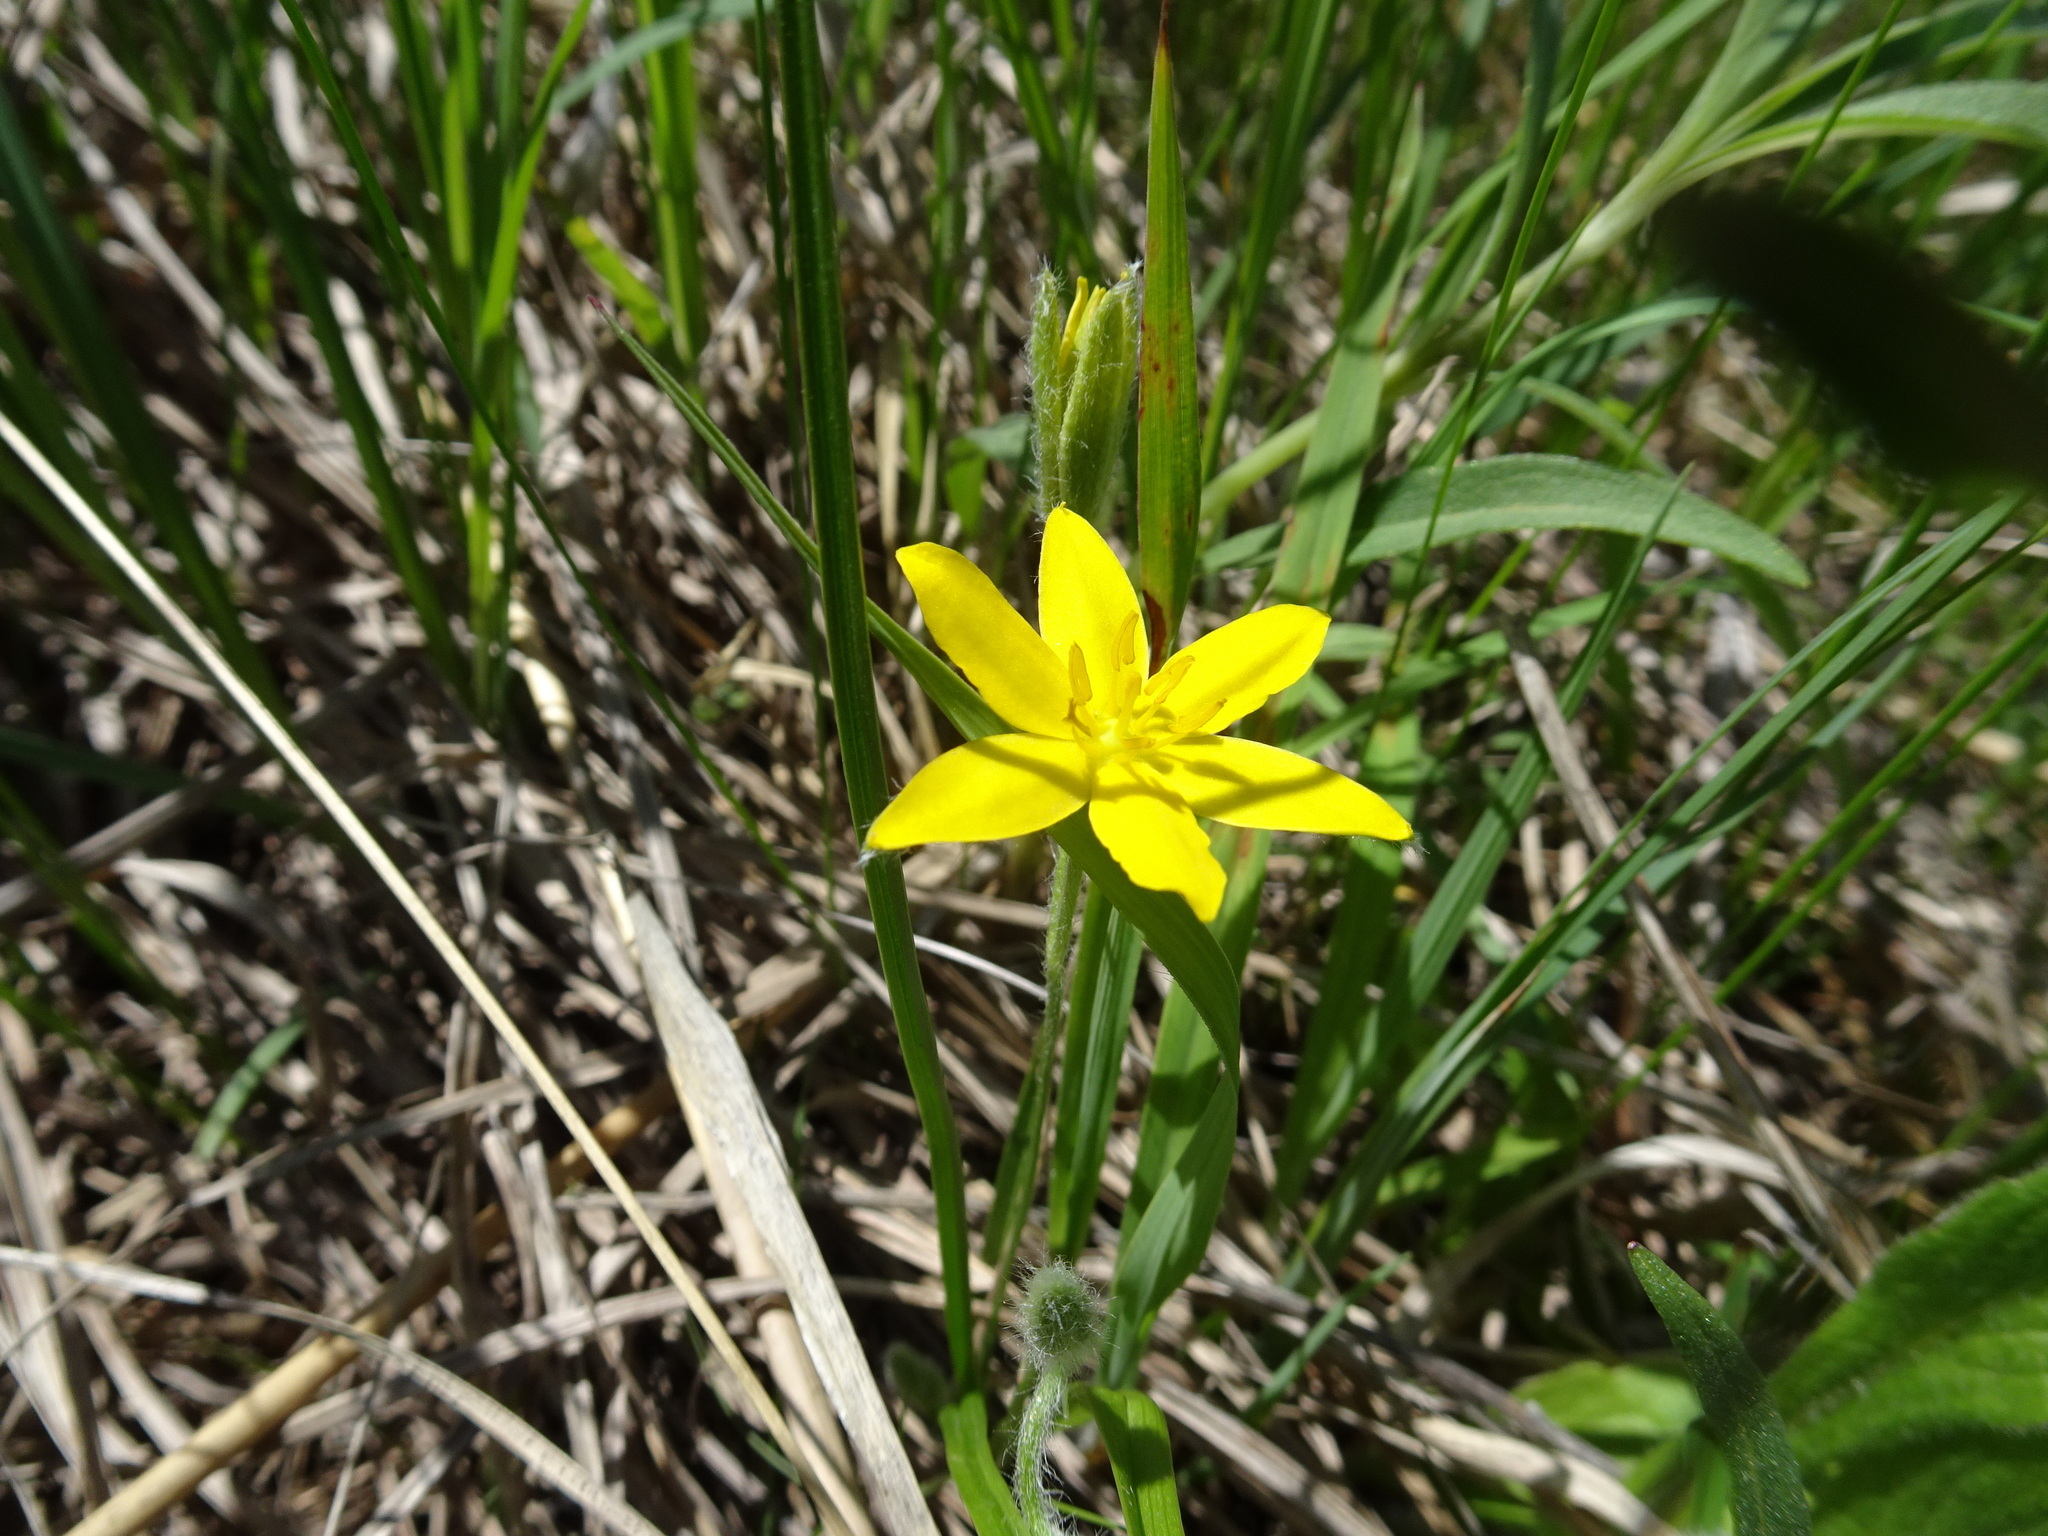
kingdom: Plantae
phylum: Tracheophyta
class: Liliopsida
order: Asparagales
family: Hypoxidaceae
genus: Hypoxis
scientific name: Hypoxis hirsuta
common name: Common goldstar
